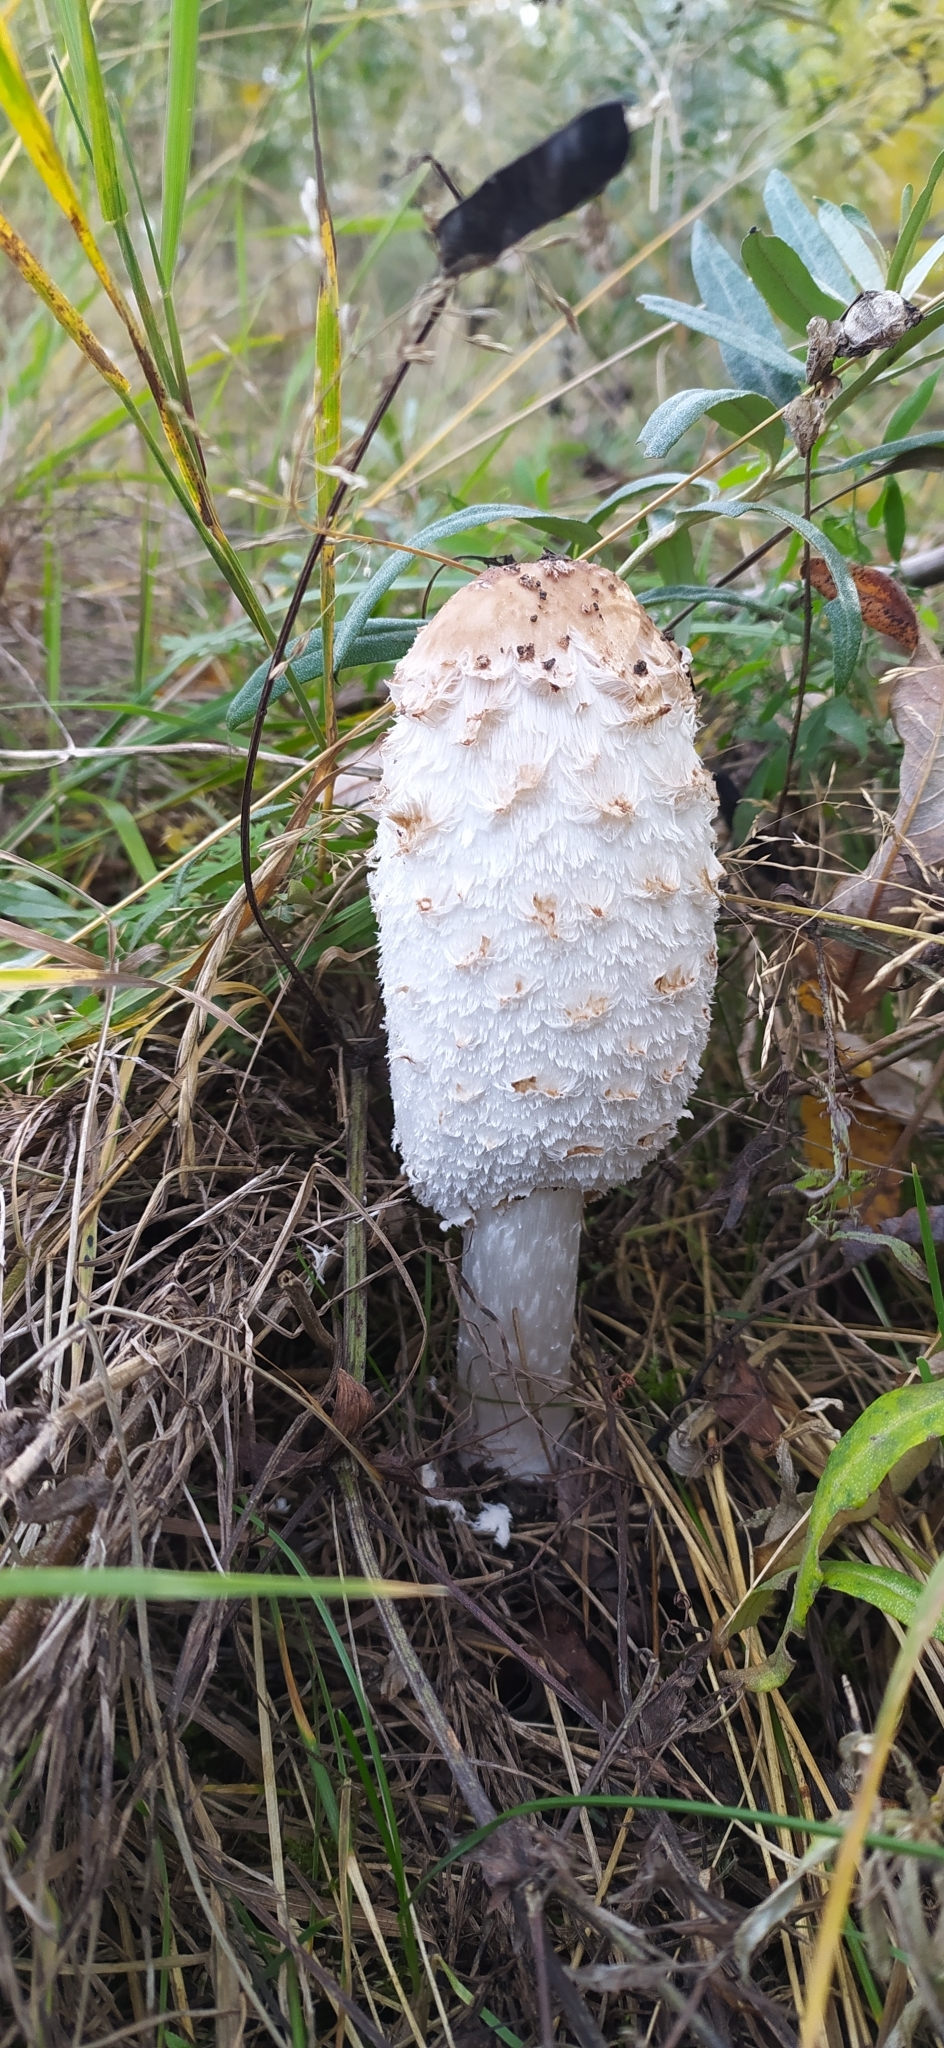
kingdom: Fungi
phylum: Basidiomycota
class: Agaricomycetes
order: Agaricales
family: Agaricaceae
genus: Coprinus
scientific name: Coprinus comatus
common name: Lawyer's wig
